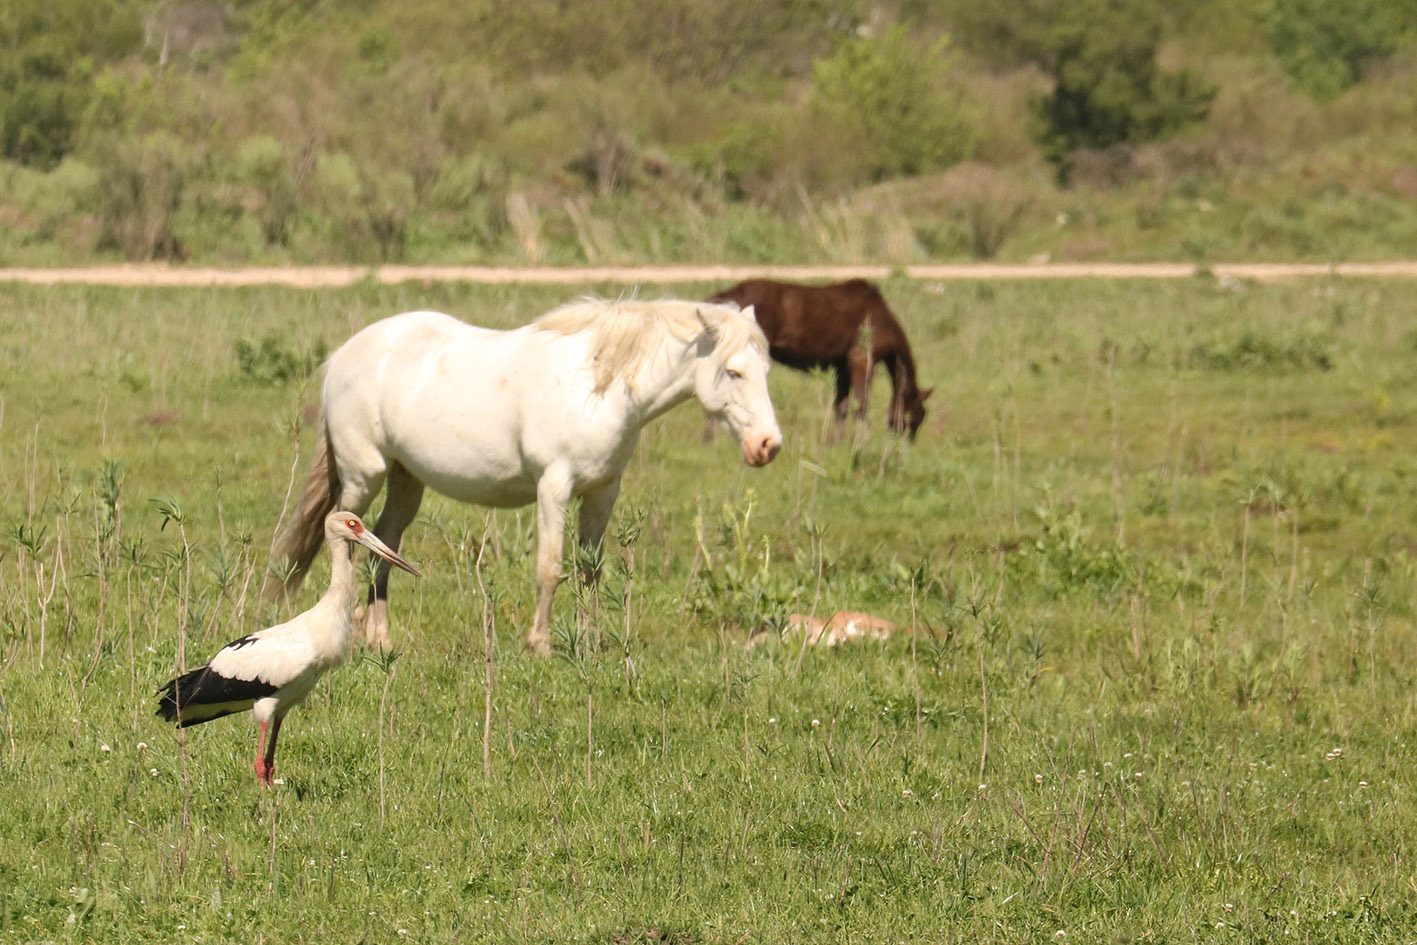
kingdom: Animalia
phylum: Chordata
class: Aves
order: Ciconiiformes
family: Ciconiidae
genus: Ciconia
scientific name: Ciconia maguari
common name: Maguari stork
